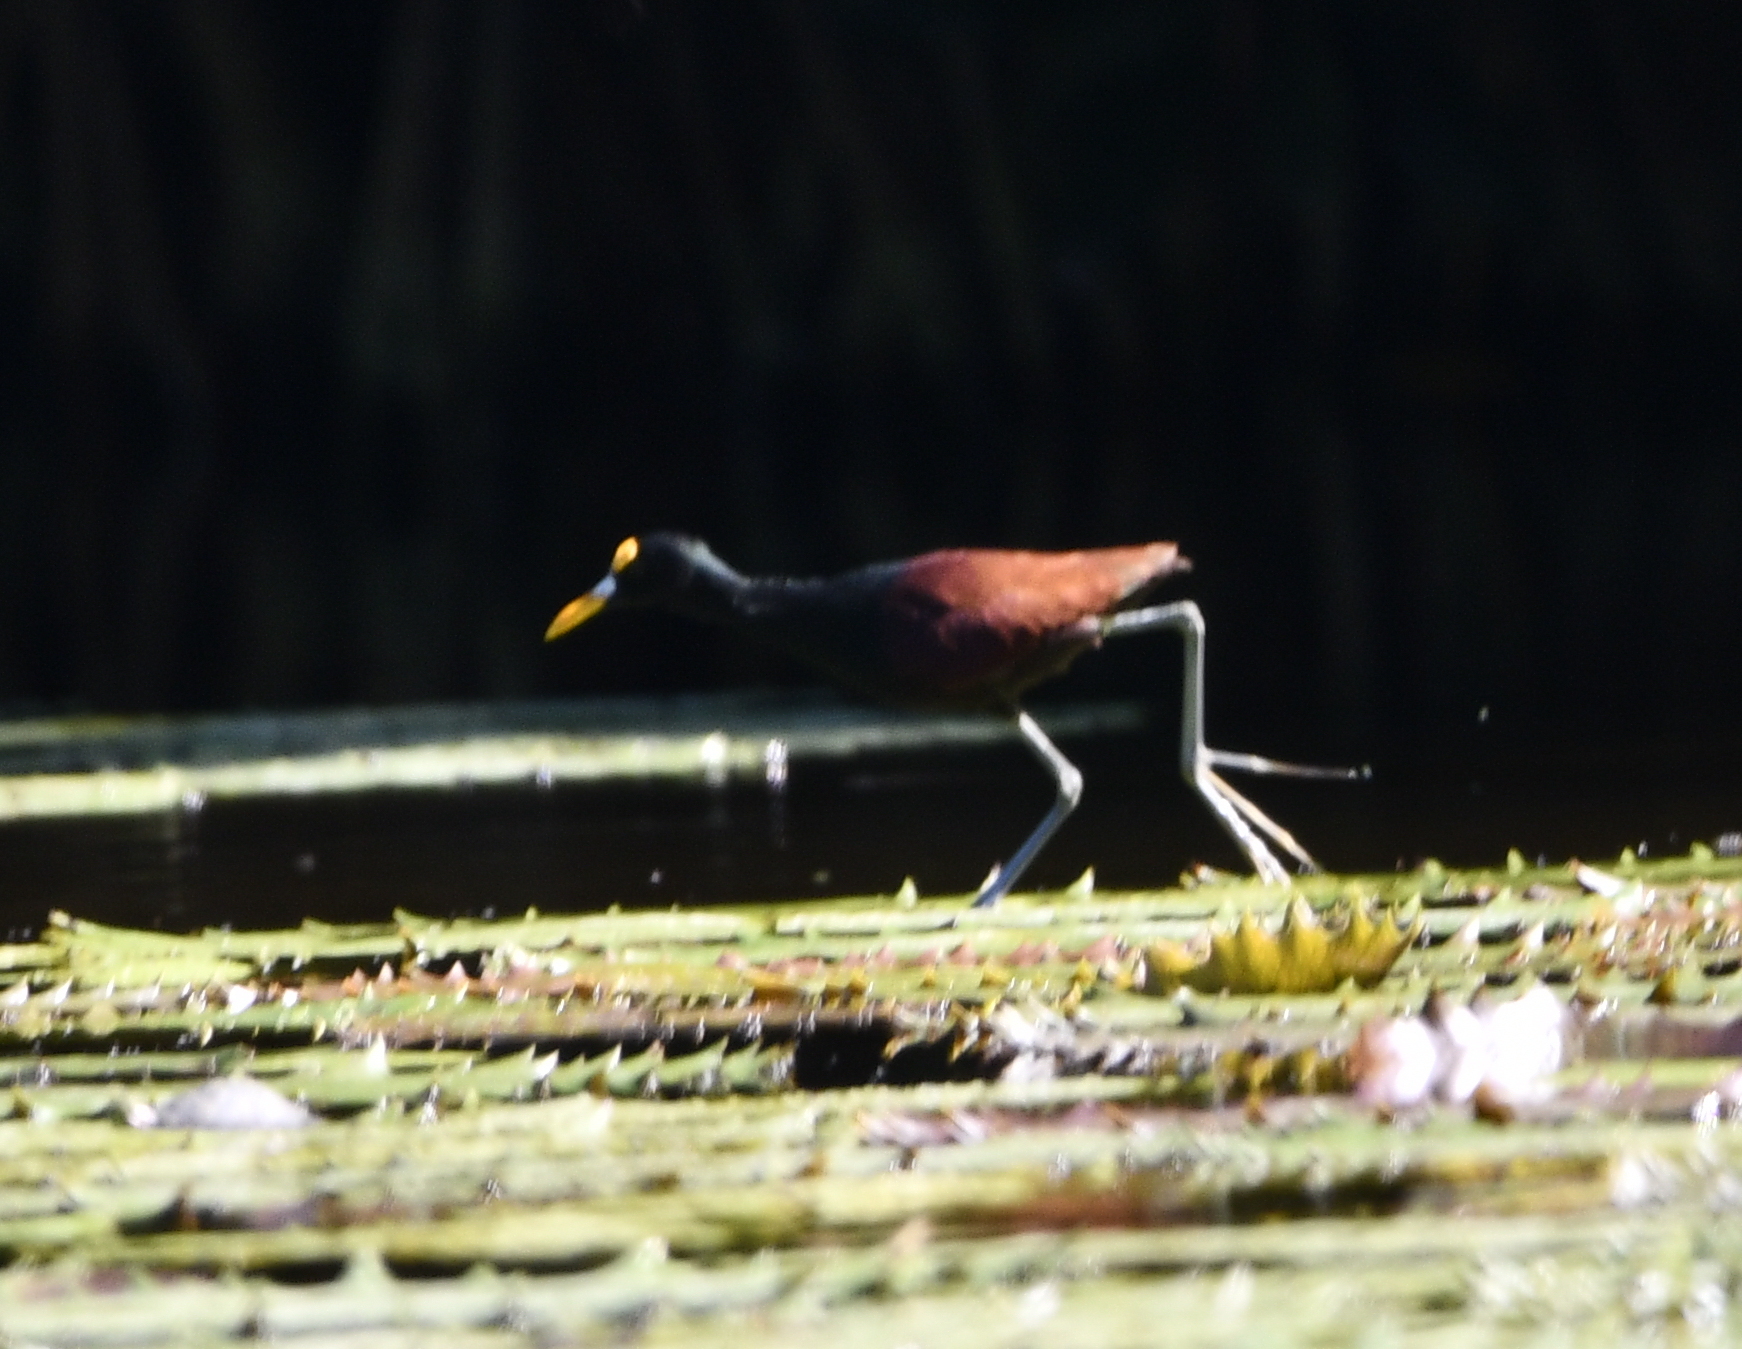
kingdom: Animalia
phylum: Chordata
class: Aves
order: Charadriiformes
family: Jacanidae
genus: Jacana
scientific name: Jacana spinosa
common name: Northern jacana
